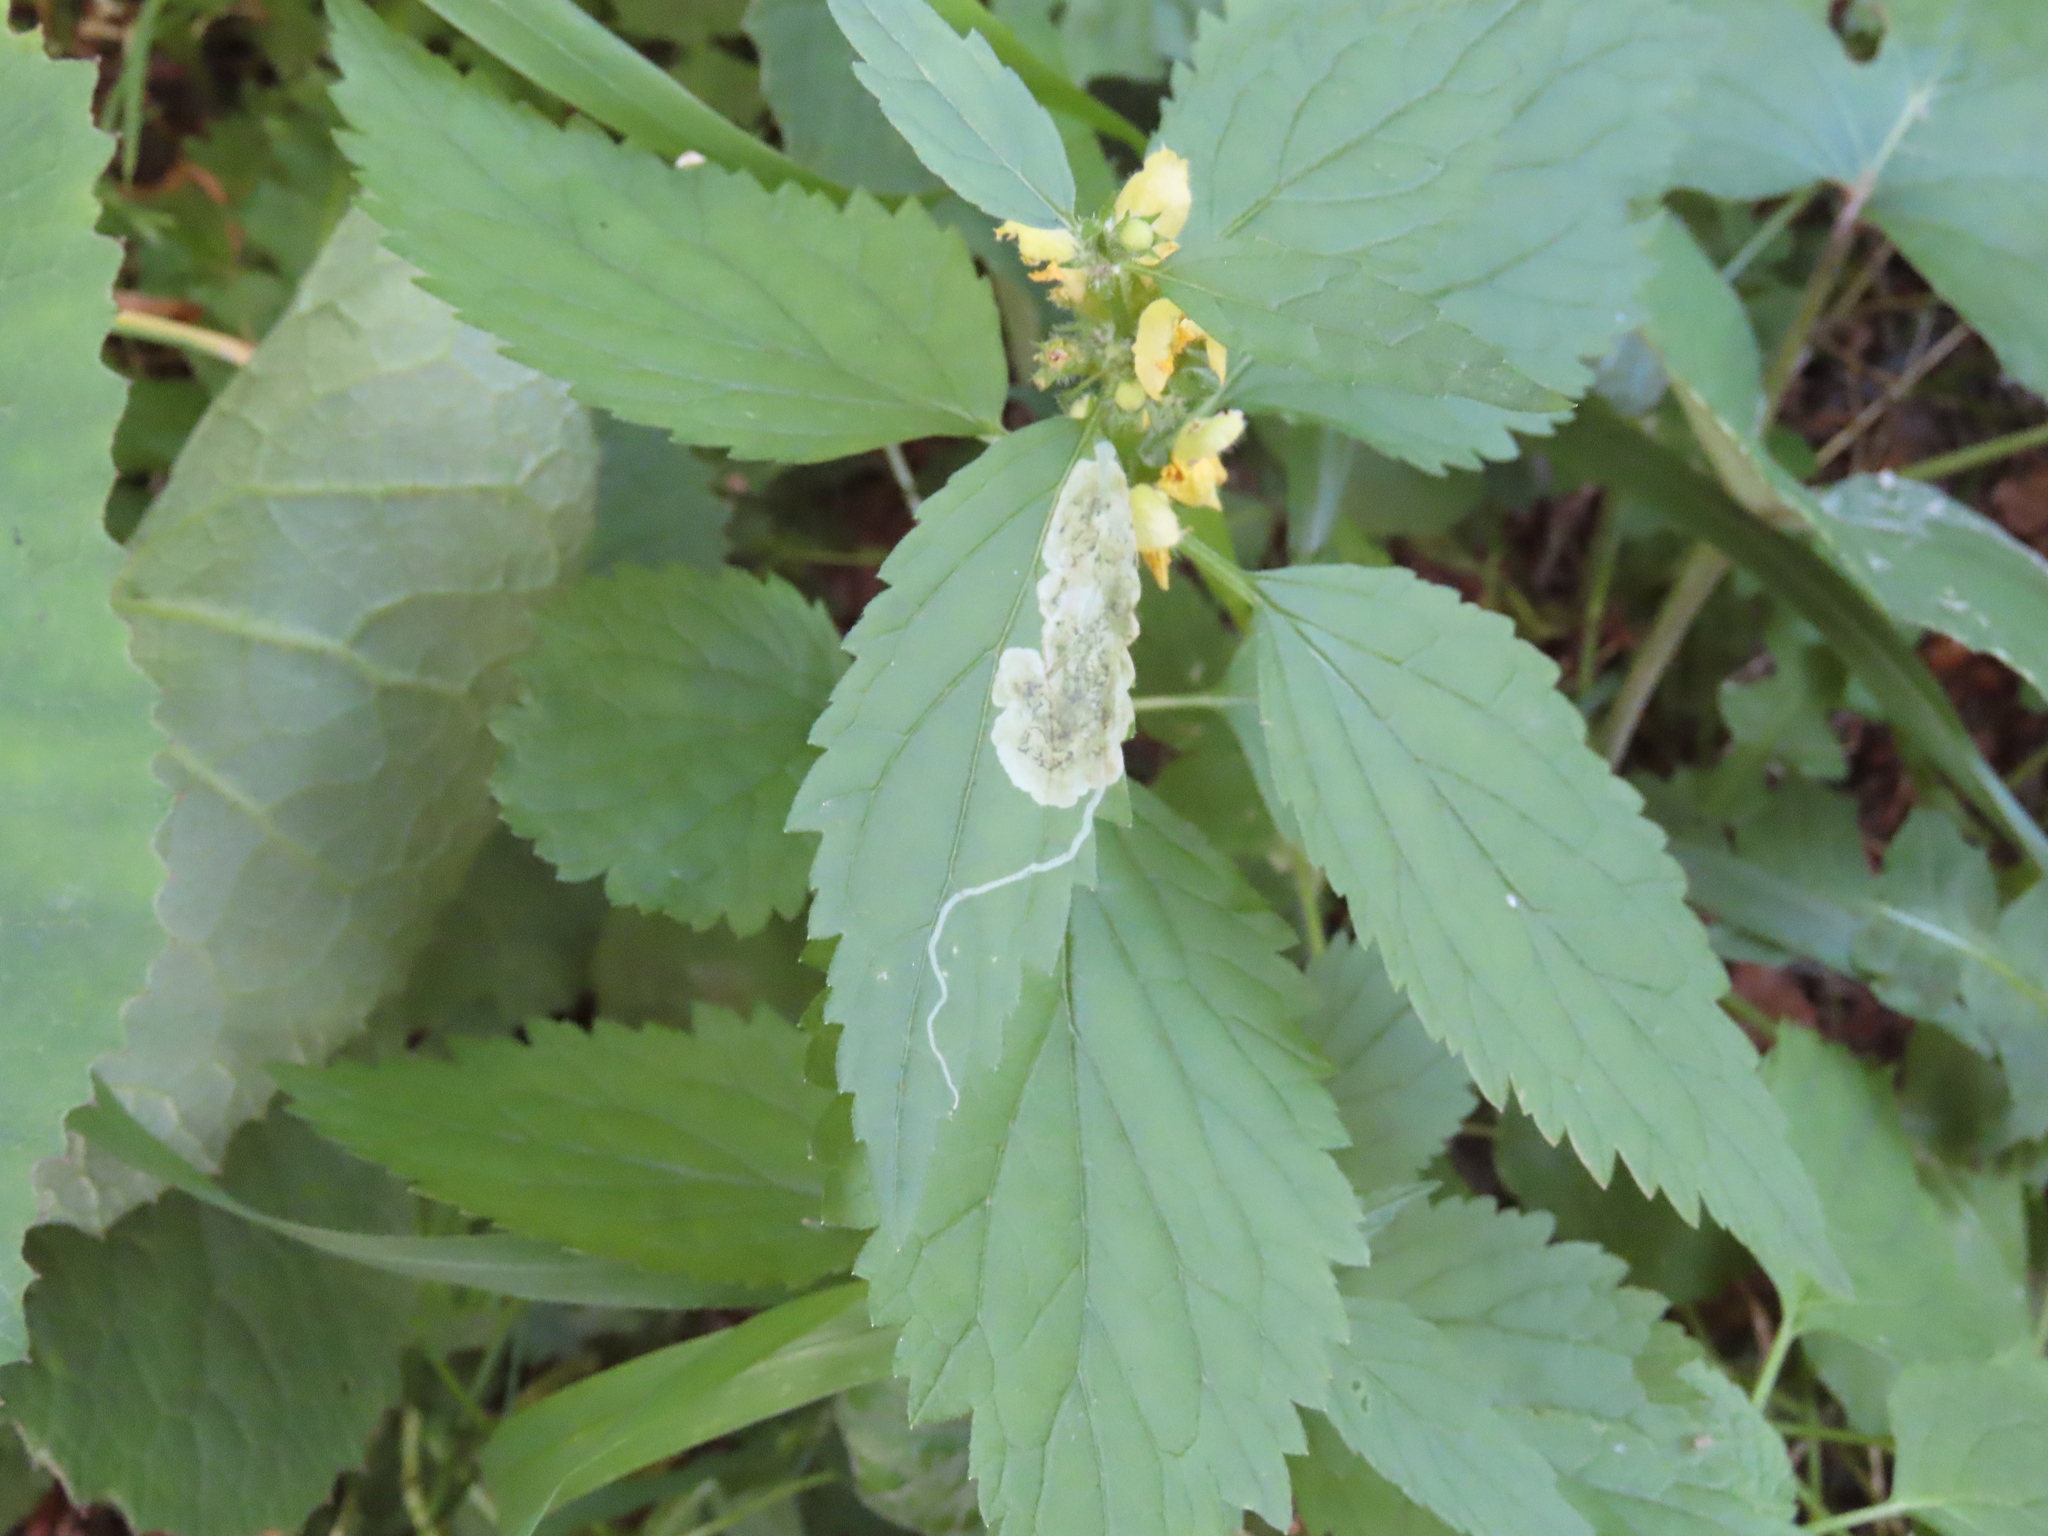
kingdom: Plantae
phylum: Tracheophyta
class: Magnoliopsida
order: Lamiales
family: Lamiaceae
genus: Lamium
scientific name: Lamium galeobdolon
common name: Yellow archangel
